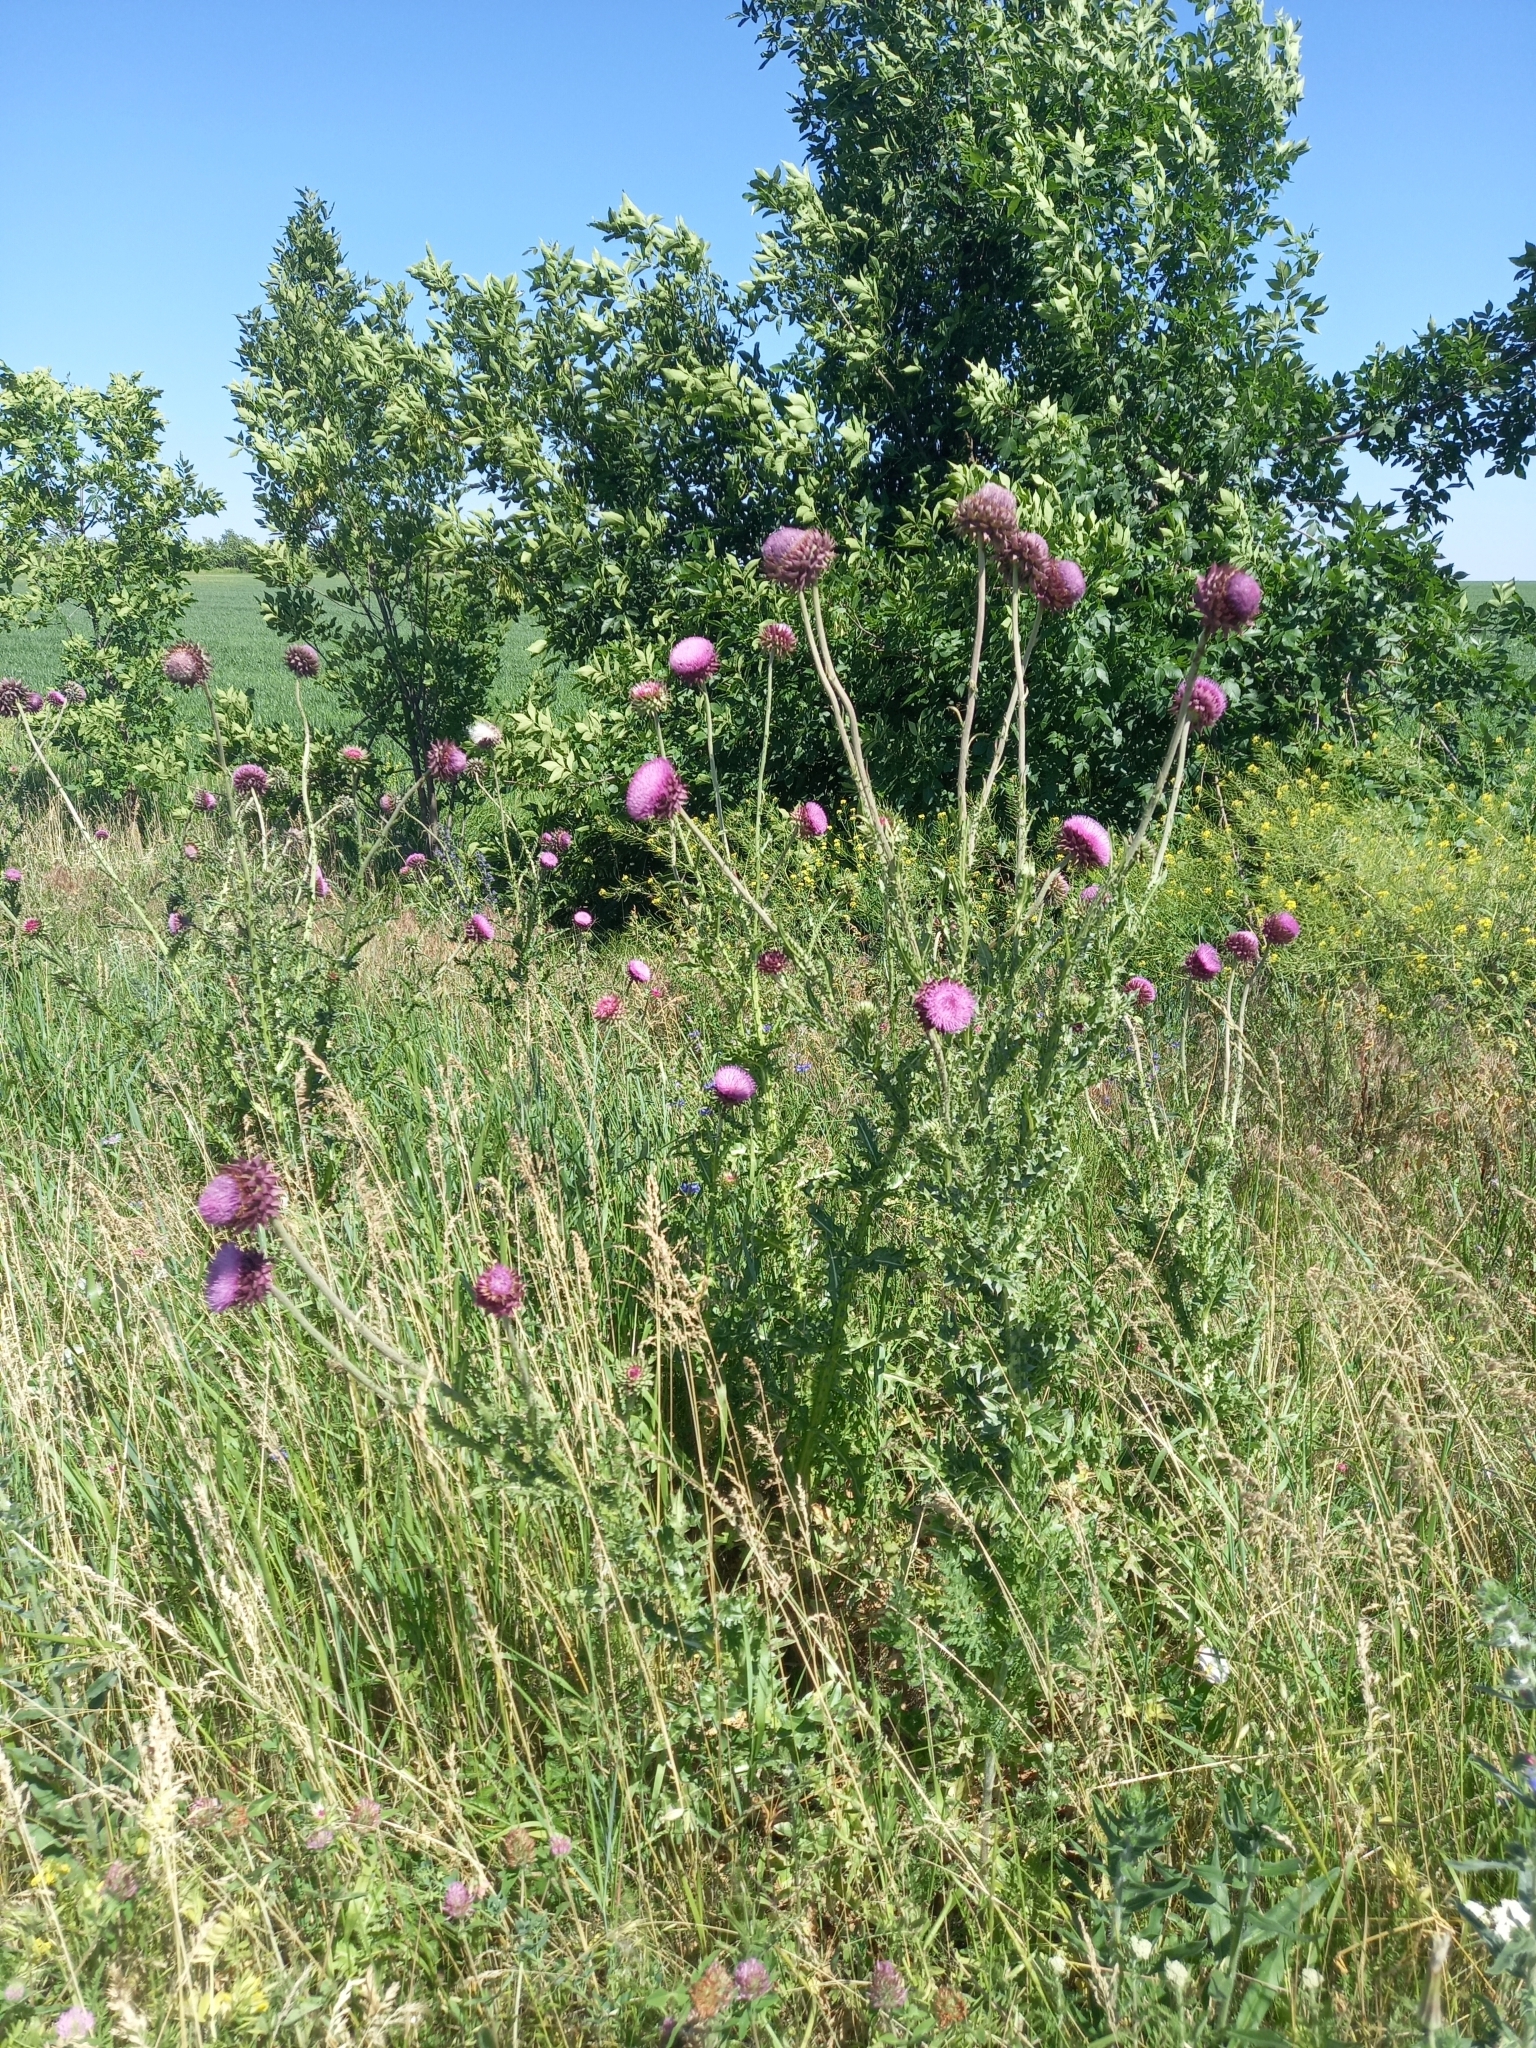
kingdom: Plantae
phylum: Tracheophyta
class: Magnoliopsida
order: Asterales
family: Asteraceae
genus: Carduus
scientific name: Carduus nutans
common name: Musk thistle
